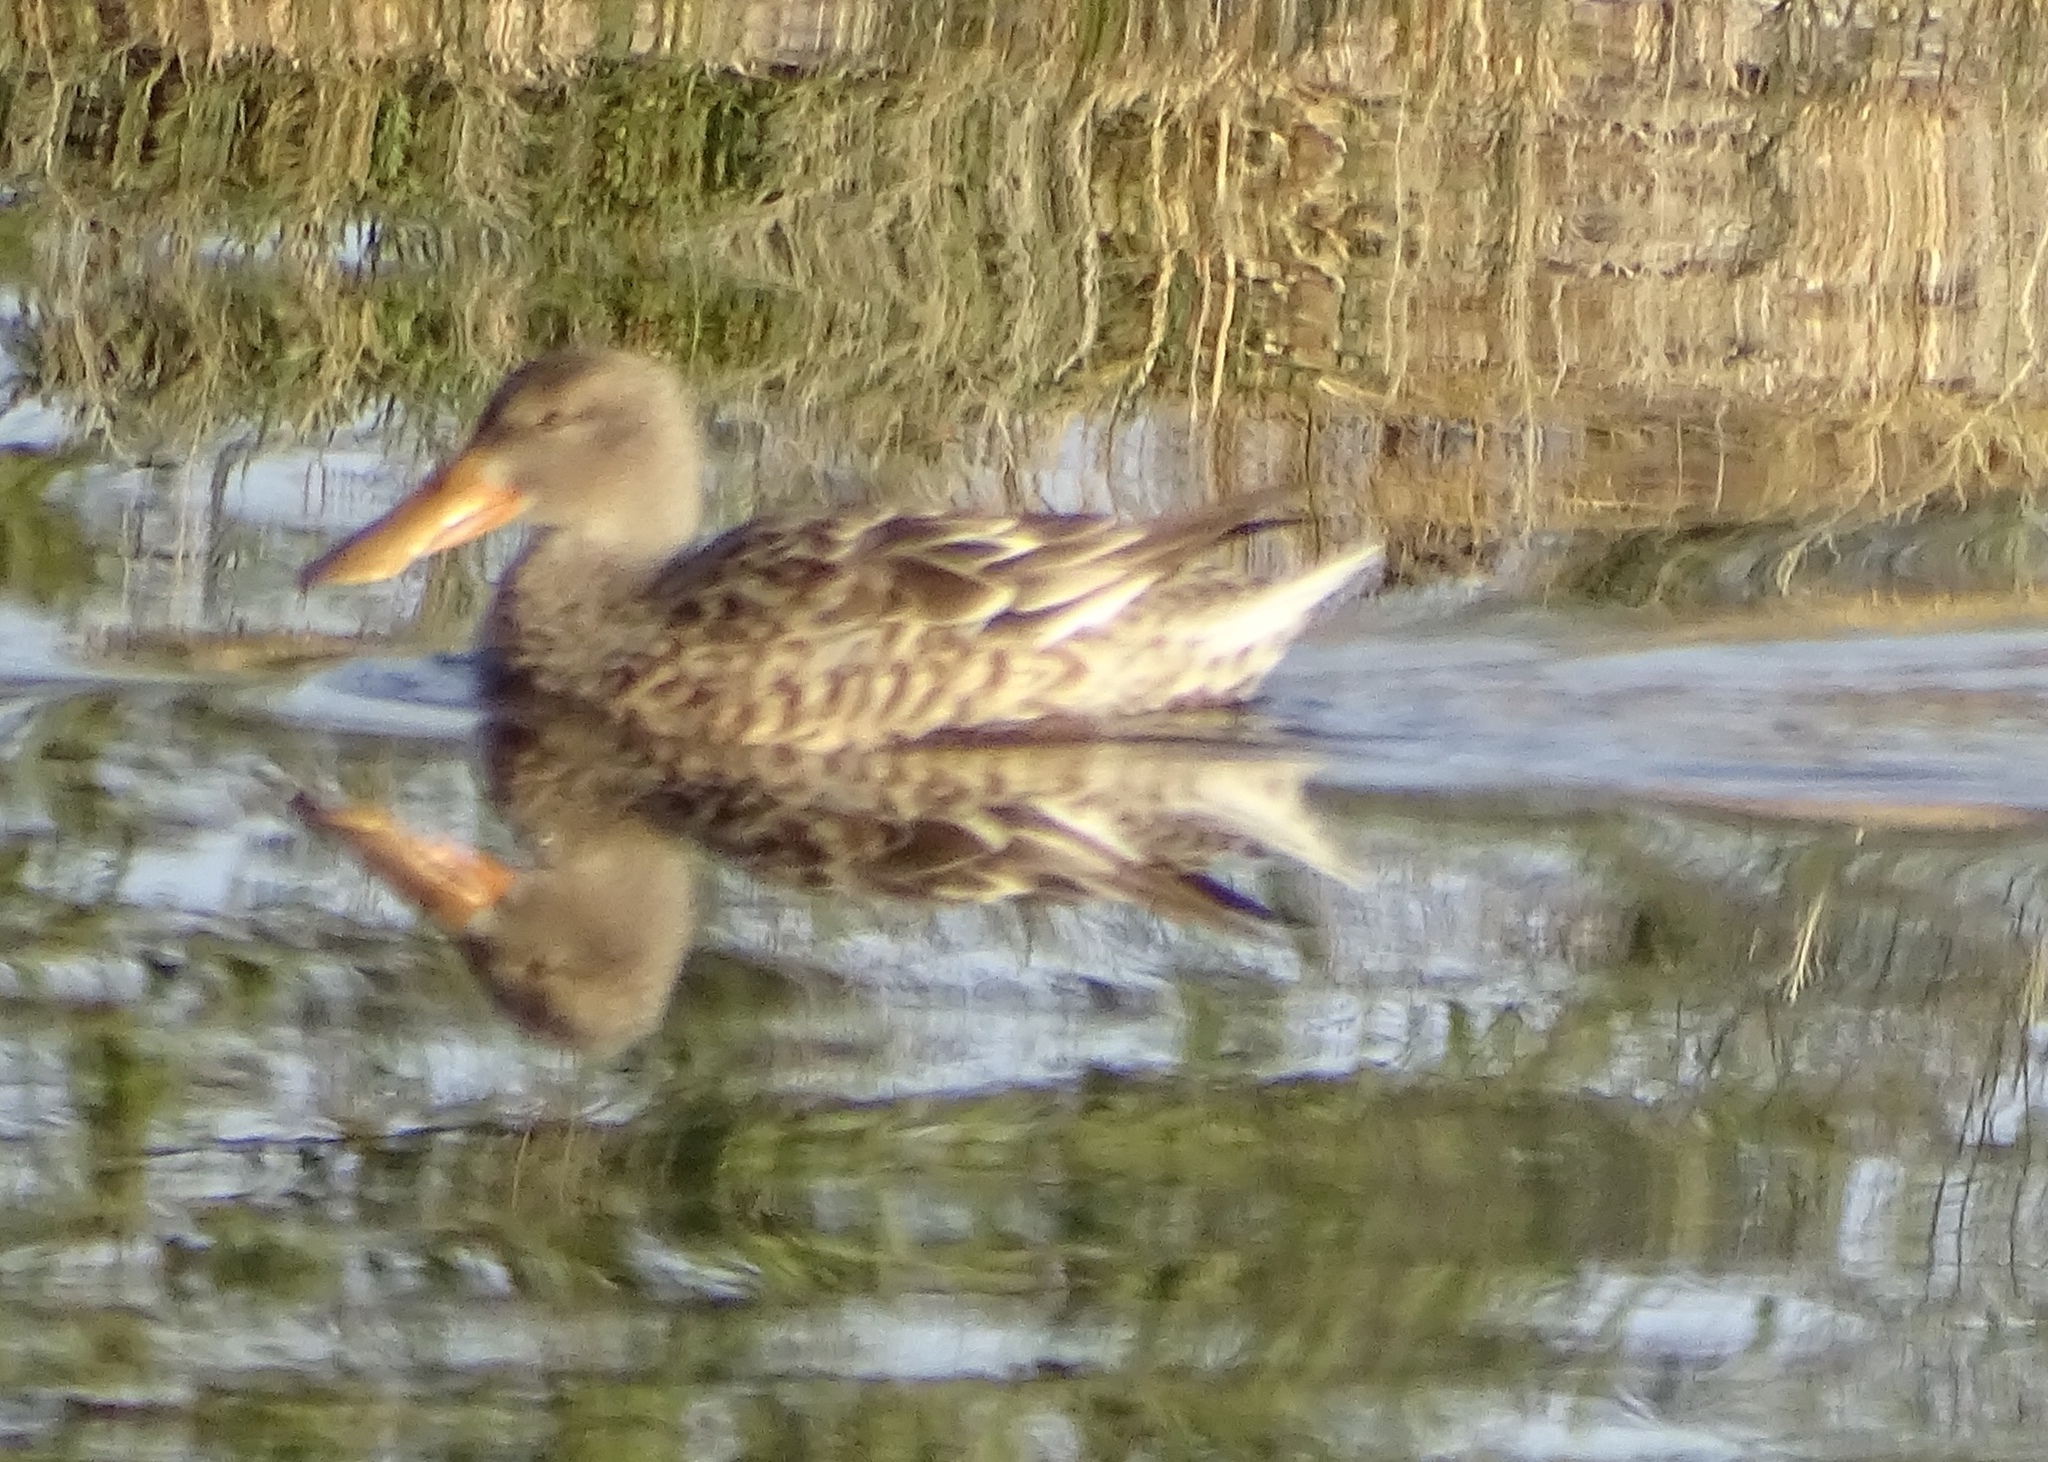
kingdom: Animalia
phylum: Chordata
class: Aves
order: Anseriformes
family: Anatidae
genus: Spatula
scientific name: Spatula clypeata
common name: Northern shoveler
